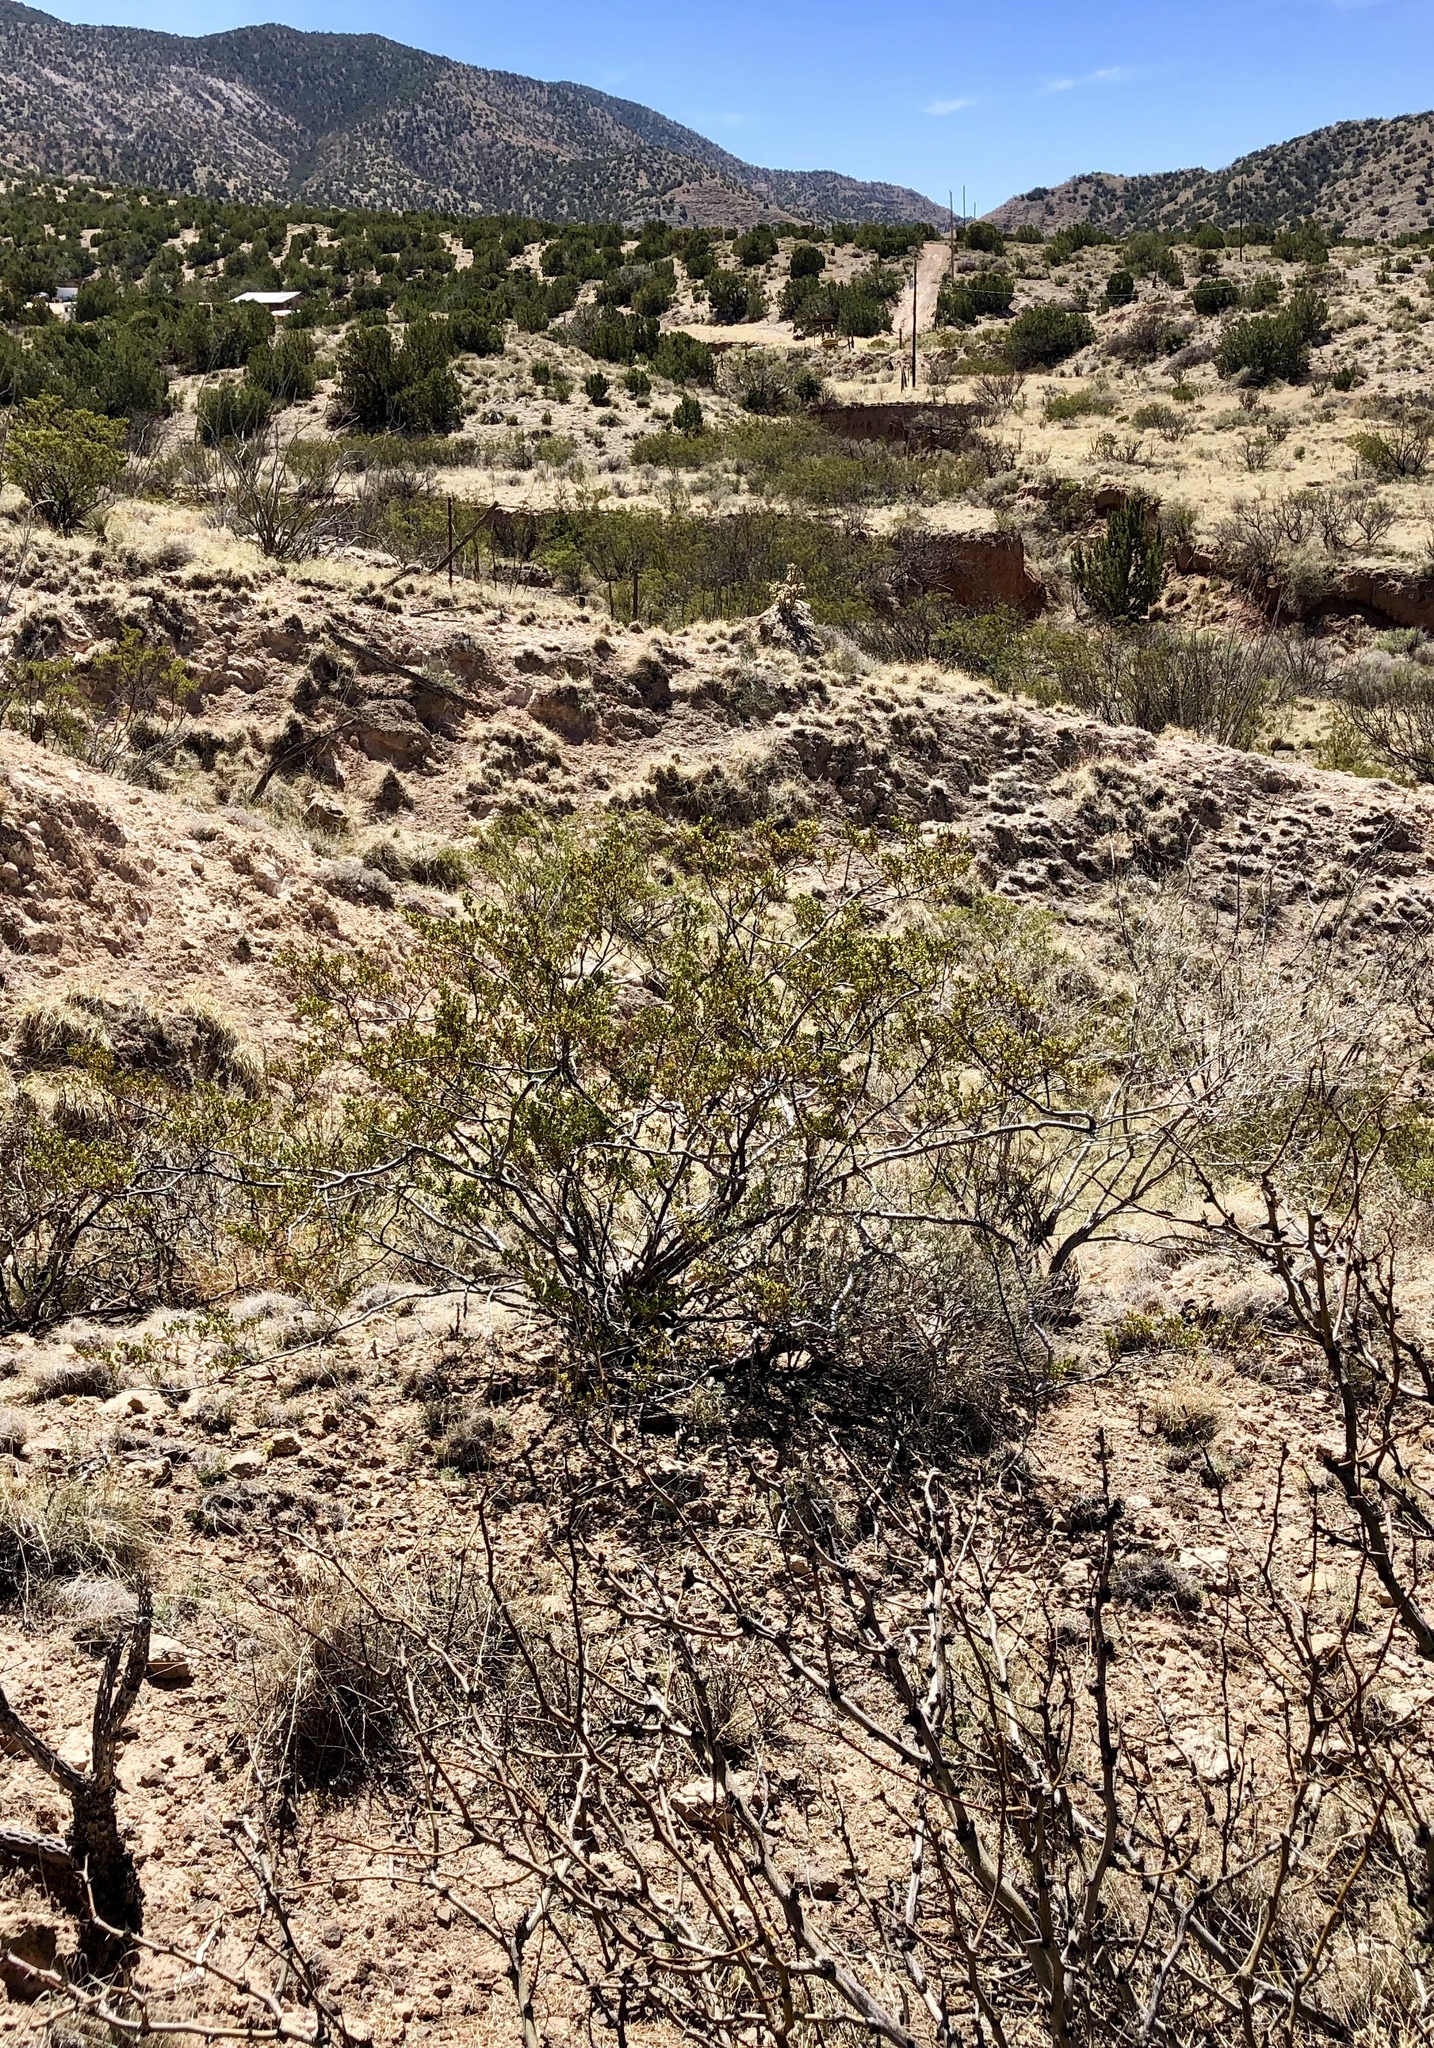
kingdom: Plantae
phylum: Tracheophyta
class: Magnoliopsida
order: Zygophyllales
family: Zygophyllaceae
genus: Larrea
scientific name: Larrea tridentata
